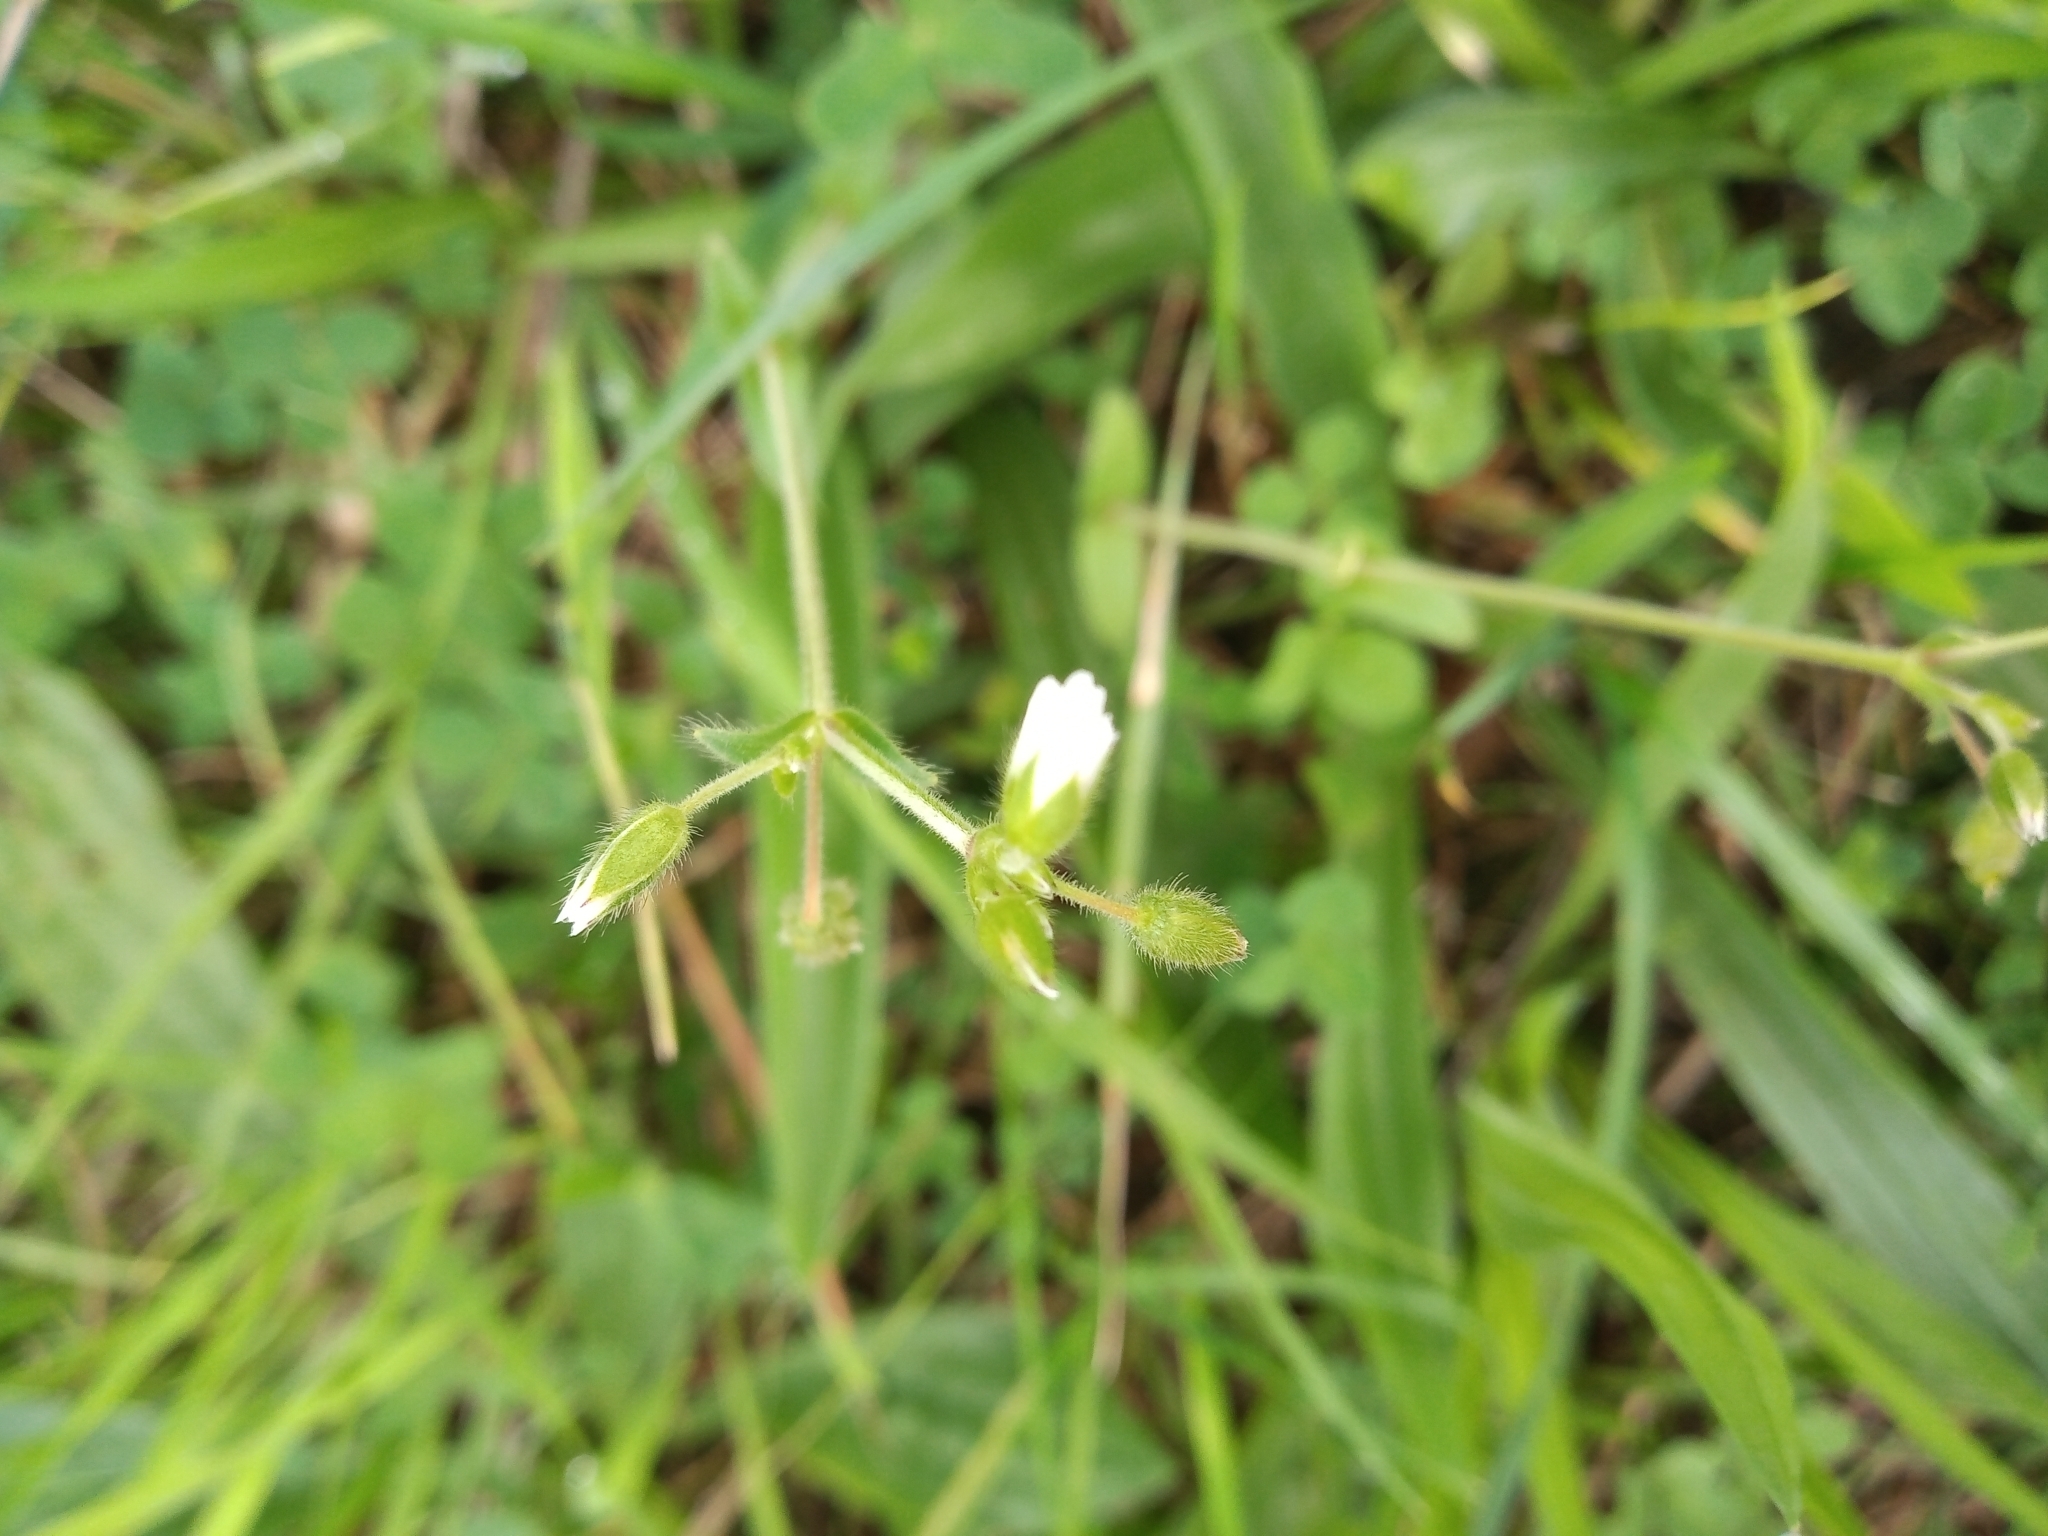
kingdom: Plantae
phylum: Tracheophyta
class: Magnoliopsida
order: Caryophyllales
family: Caryophyllaceae
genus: Cerastium
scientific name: Cerastium fontanum
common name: Common mouse-ear
